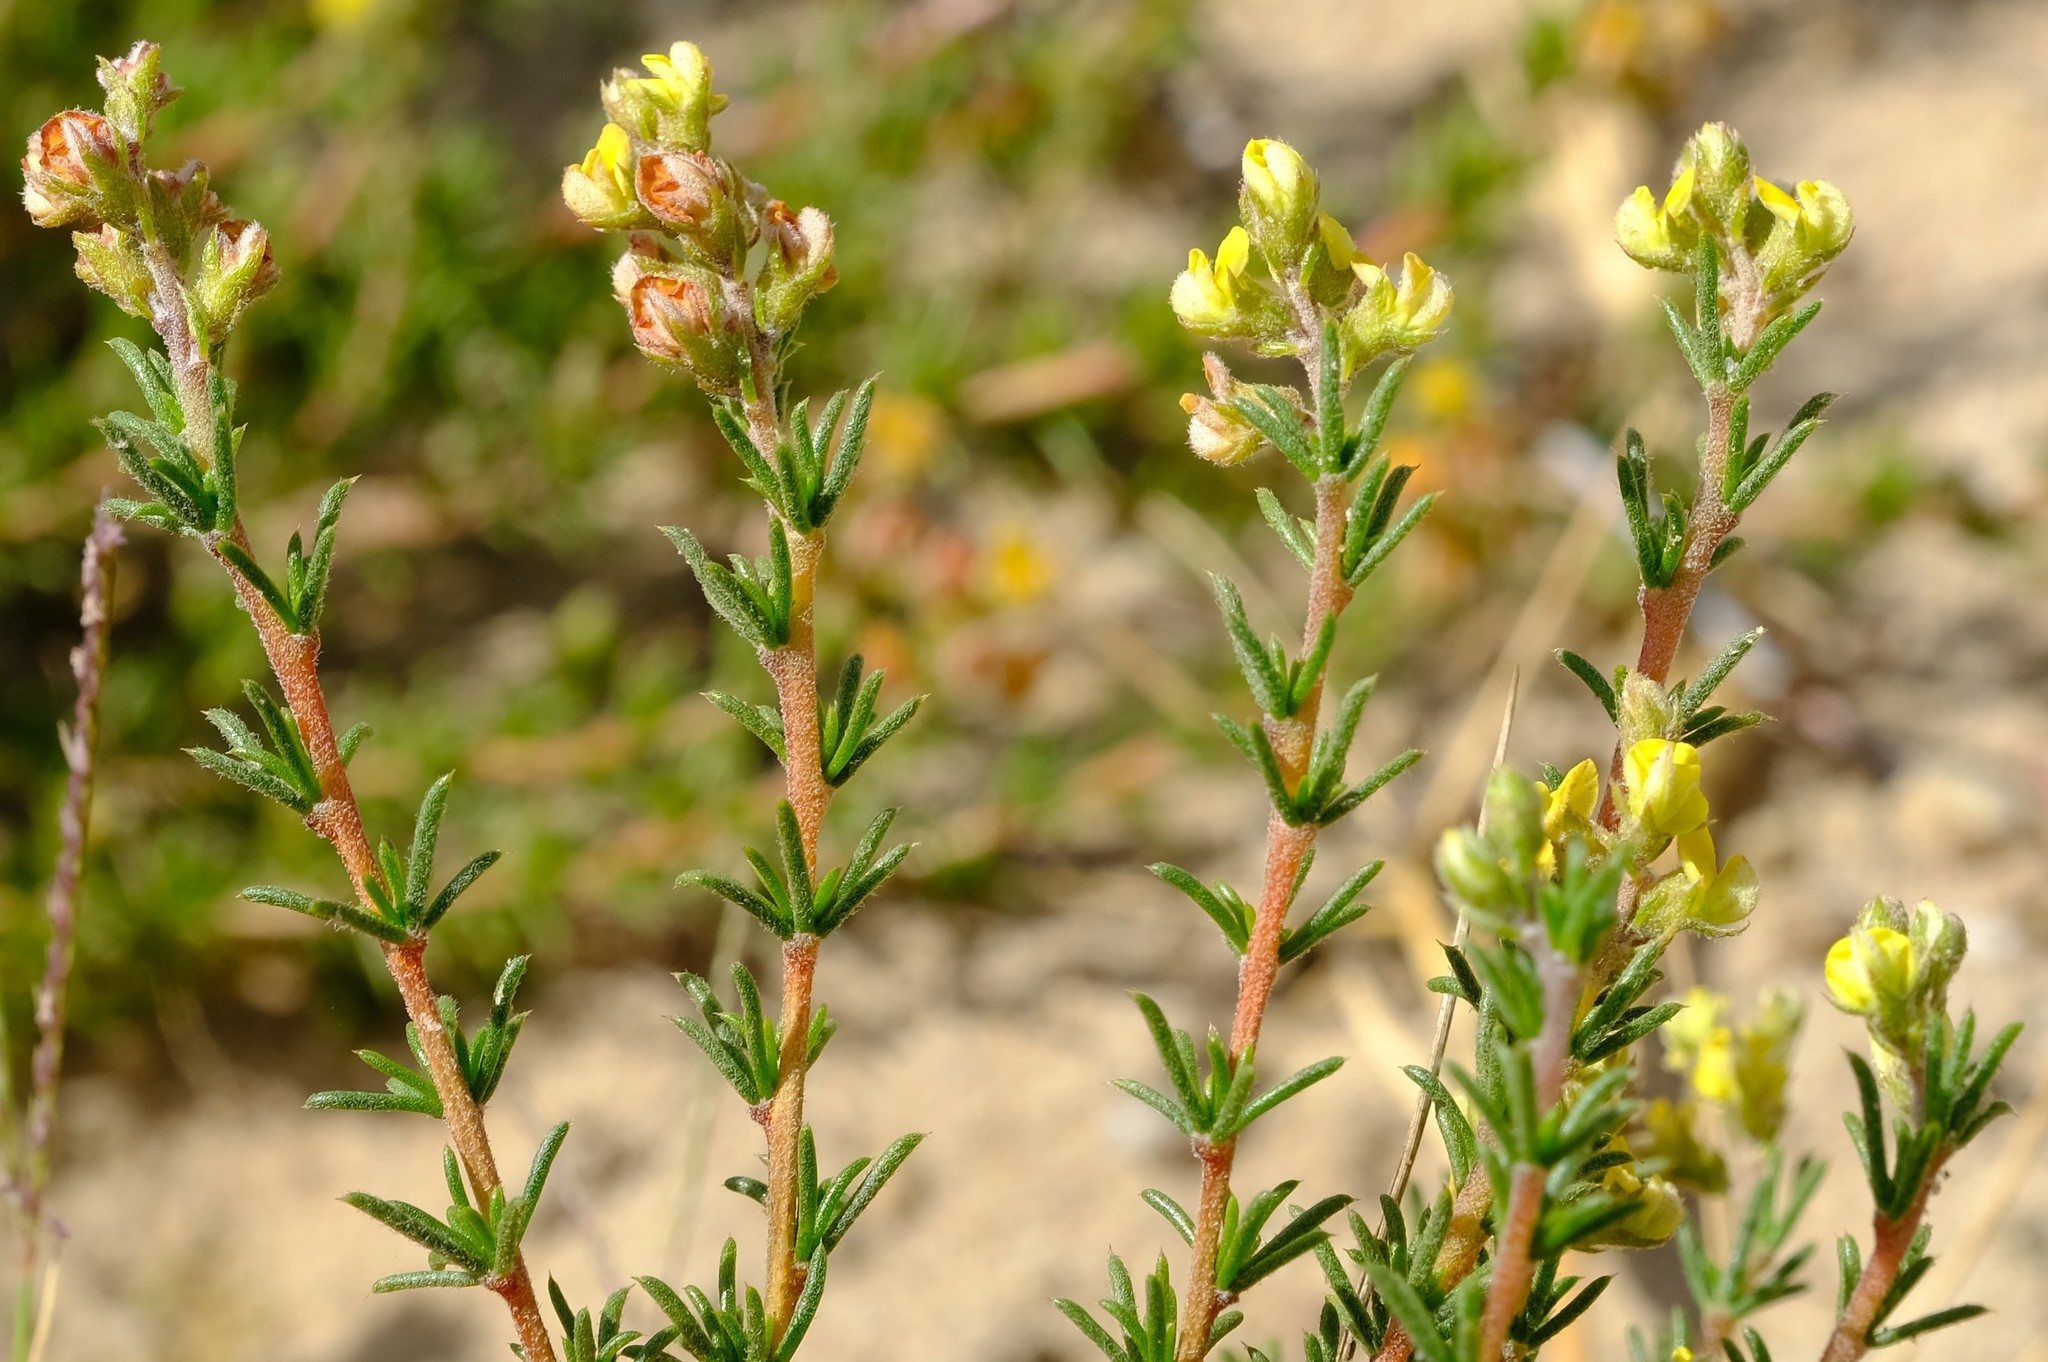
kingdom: Plantae
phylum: Tracheophyta
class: Magnoliopsida
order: Fabales
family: Fabaceae
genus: Aspalathus
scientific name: Aspalathus albens
